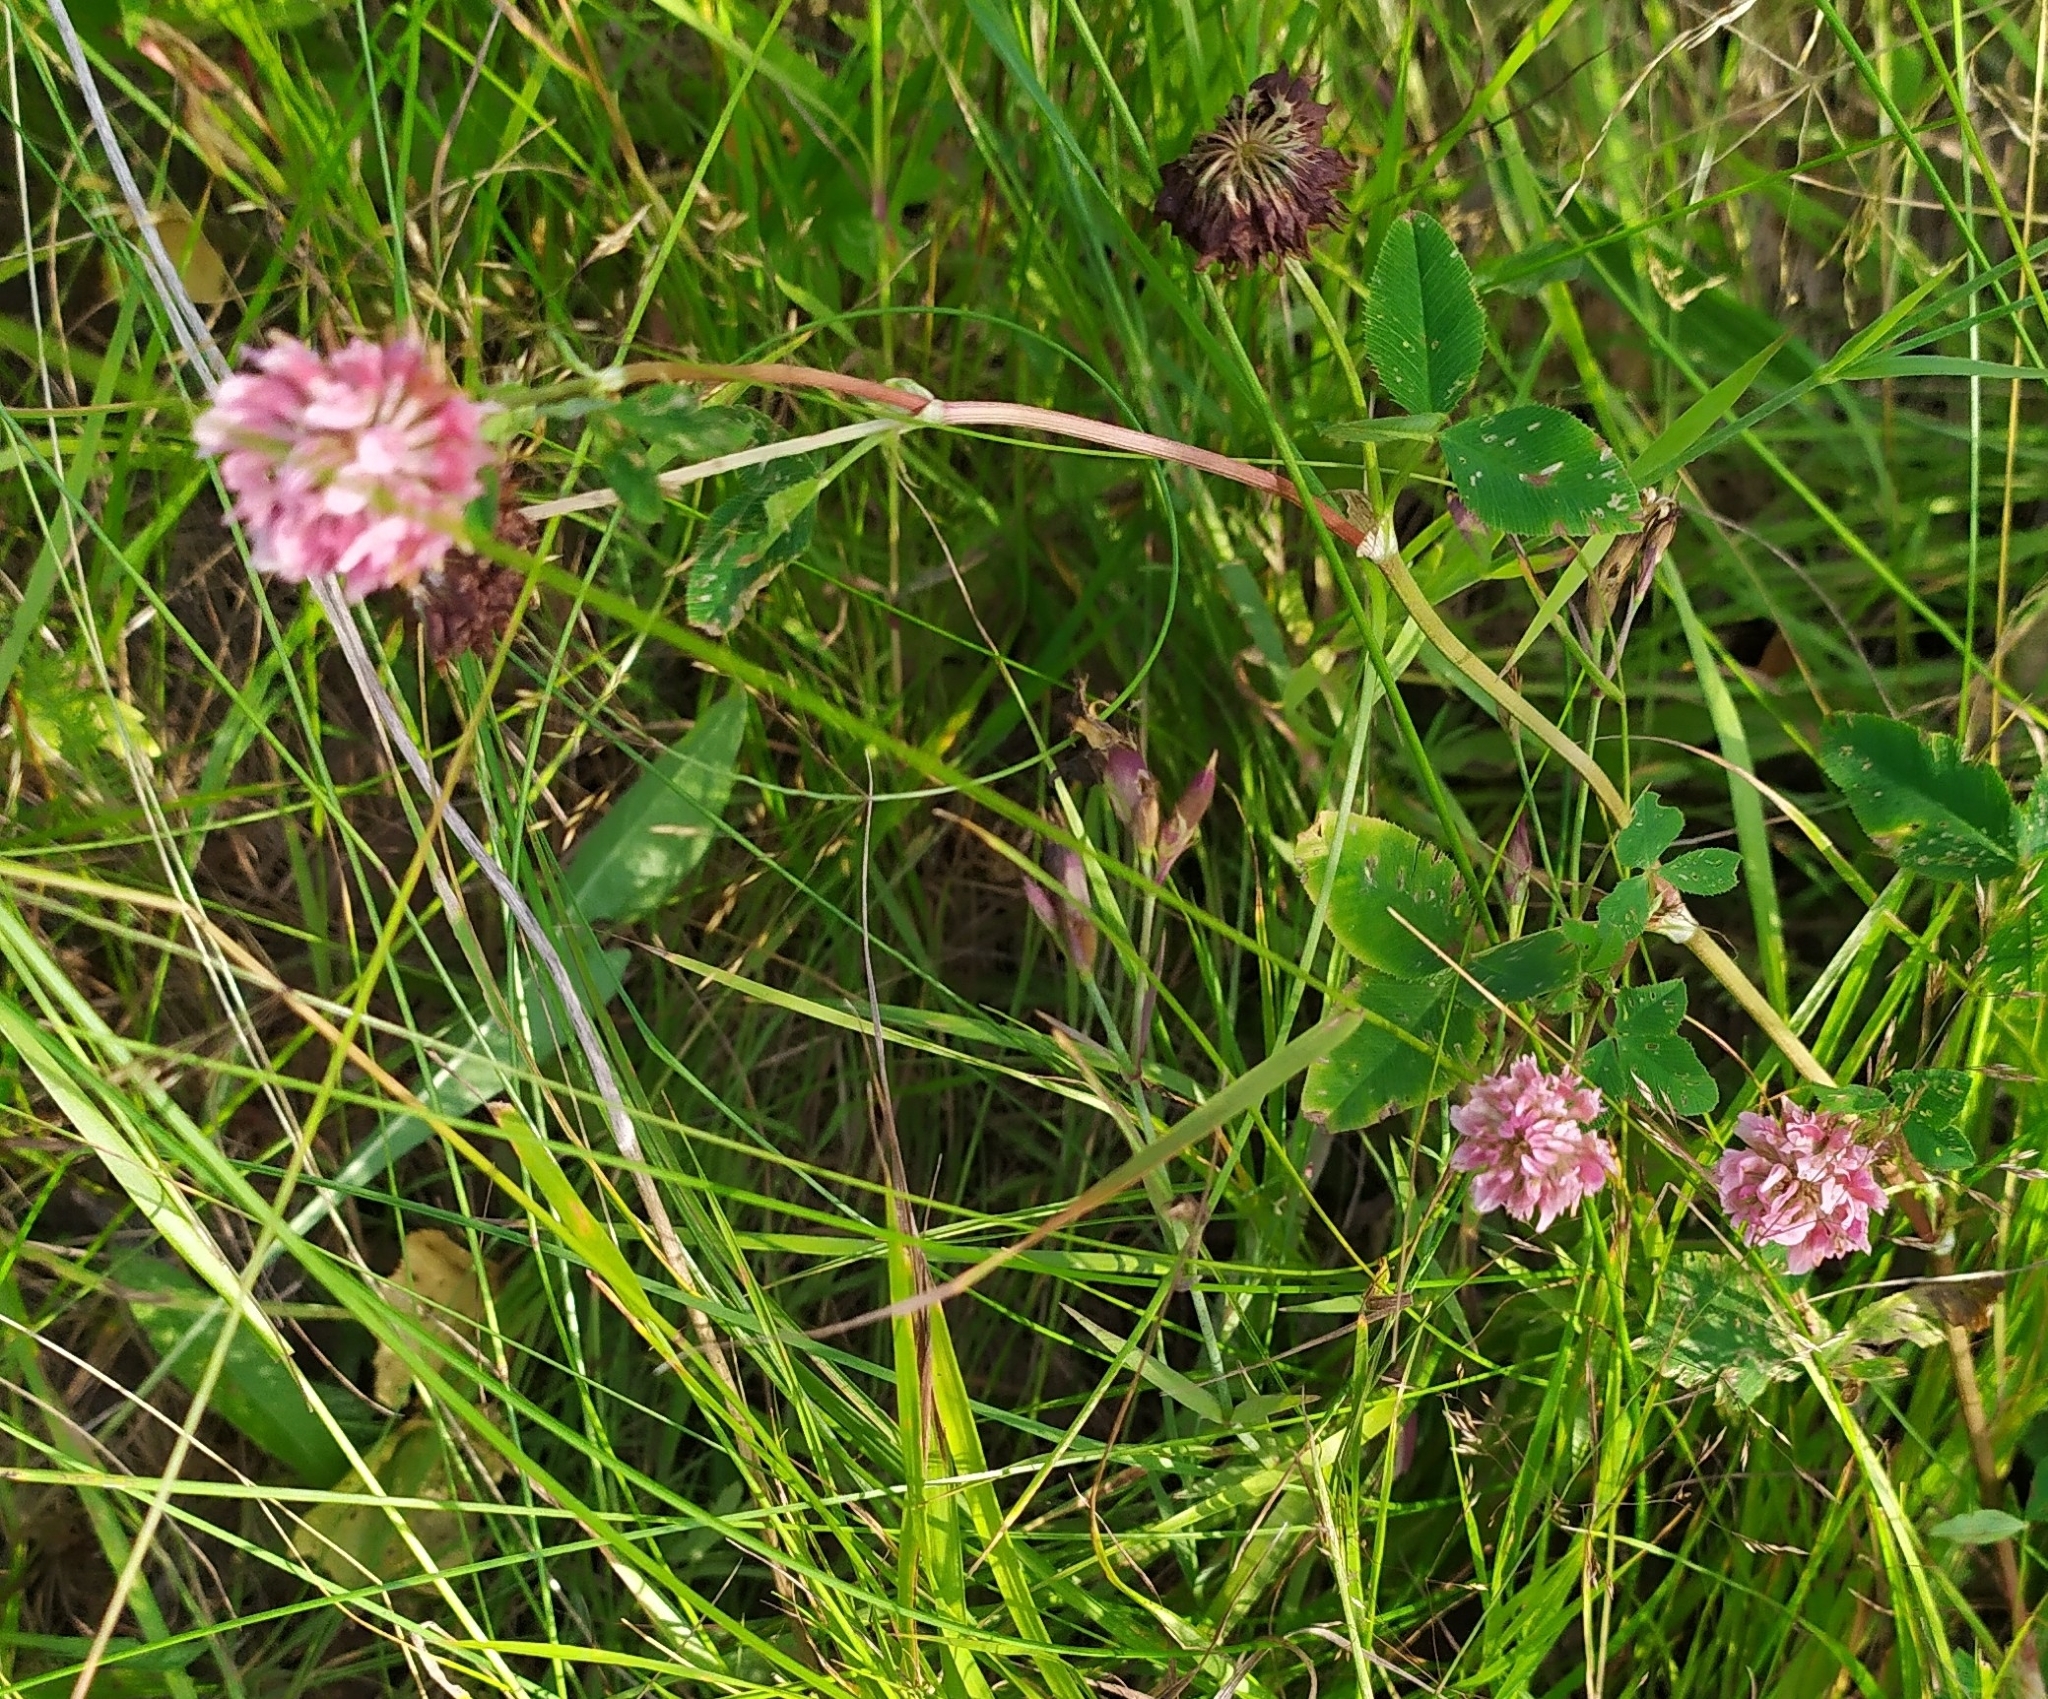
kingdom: Plantae
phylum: Tracheophyta
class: Magnoliopsida
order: Fabales
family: Fabaceae
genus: Trifolium
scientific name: Trifolium hybridum
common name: Alsike clover
